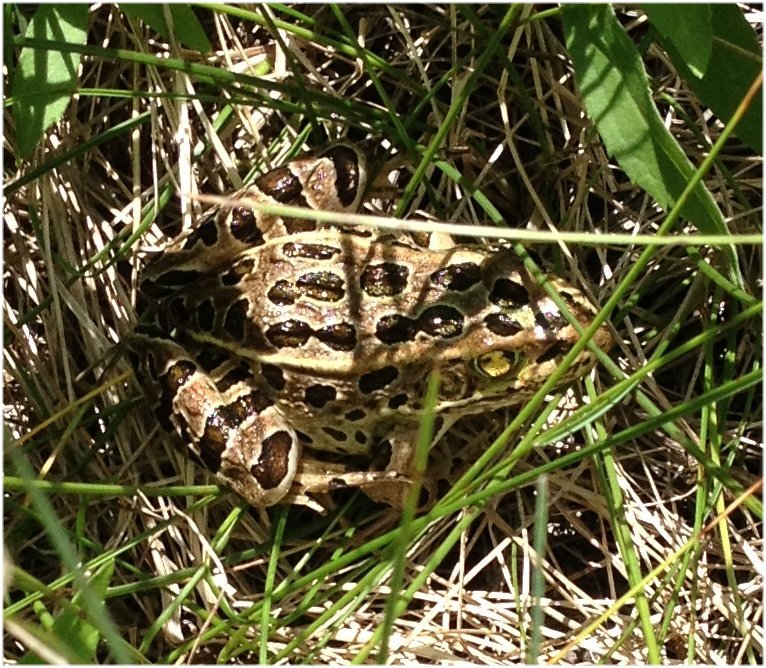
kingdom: Animalia
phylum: Chordata
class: Amphibia
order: Anura
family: Ranidae
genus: Lithobates
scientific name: Lithobates pipiens
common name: Northern leopard frog
